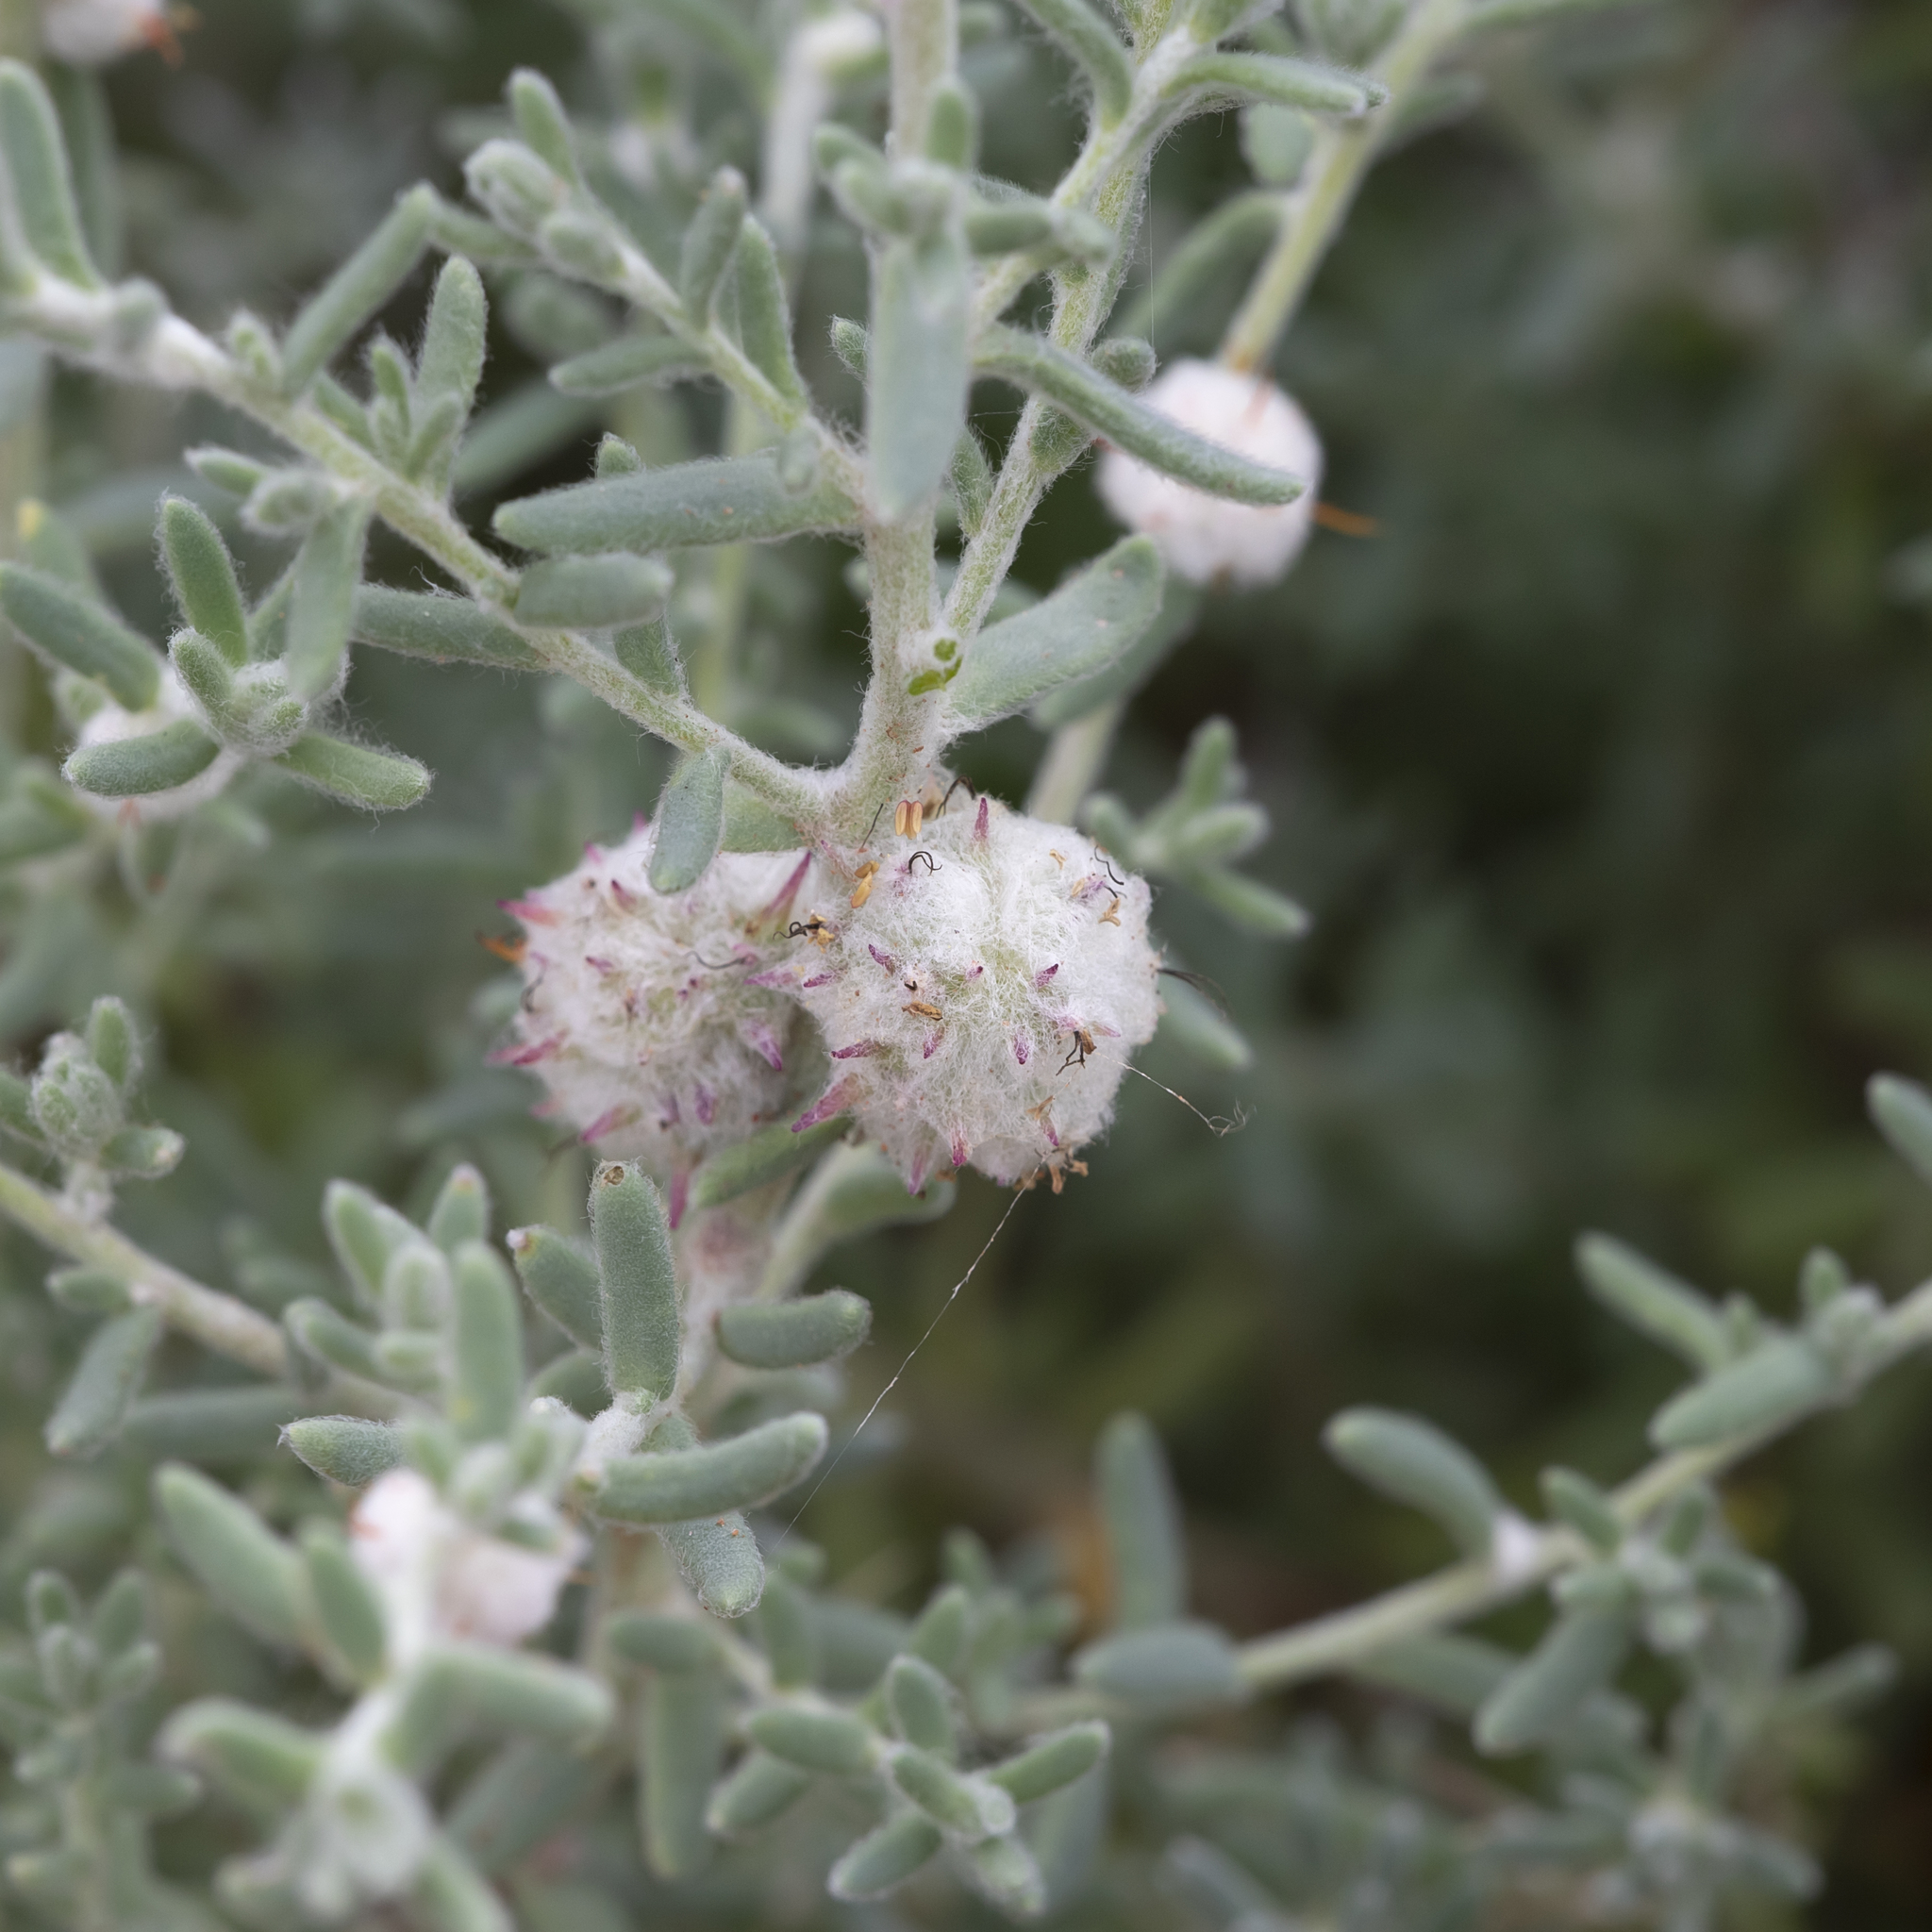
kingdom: Plantae
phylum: Tracheophyta
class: Magnoliopsida
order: Caryophyllales
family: Amaranthaceae
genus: Dissocarpus
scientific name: Dissocarpus paradoxus
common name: Bur-saltbush
